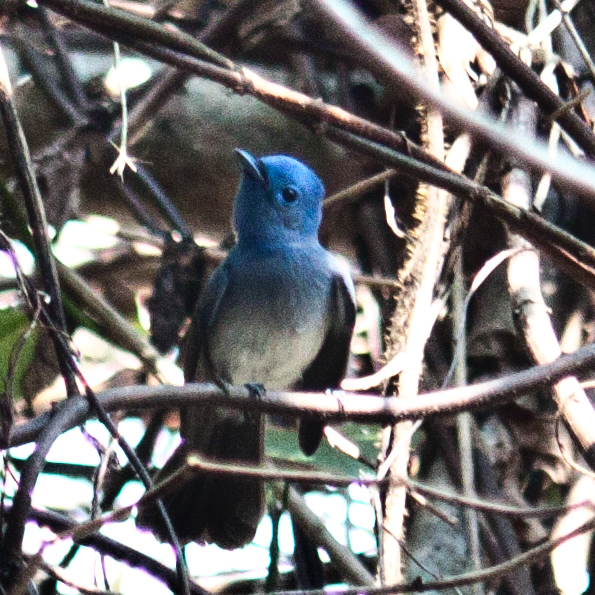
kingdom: Animalia
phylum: Chordata
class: Aves
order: Passeriformes
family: Monarchidae
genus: Hypothymis
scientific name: Hypothymis azurea
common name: Black-naped monarch
